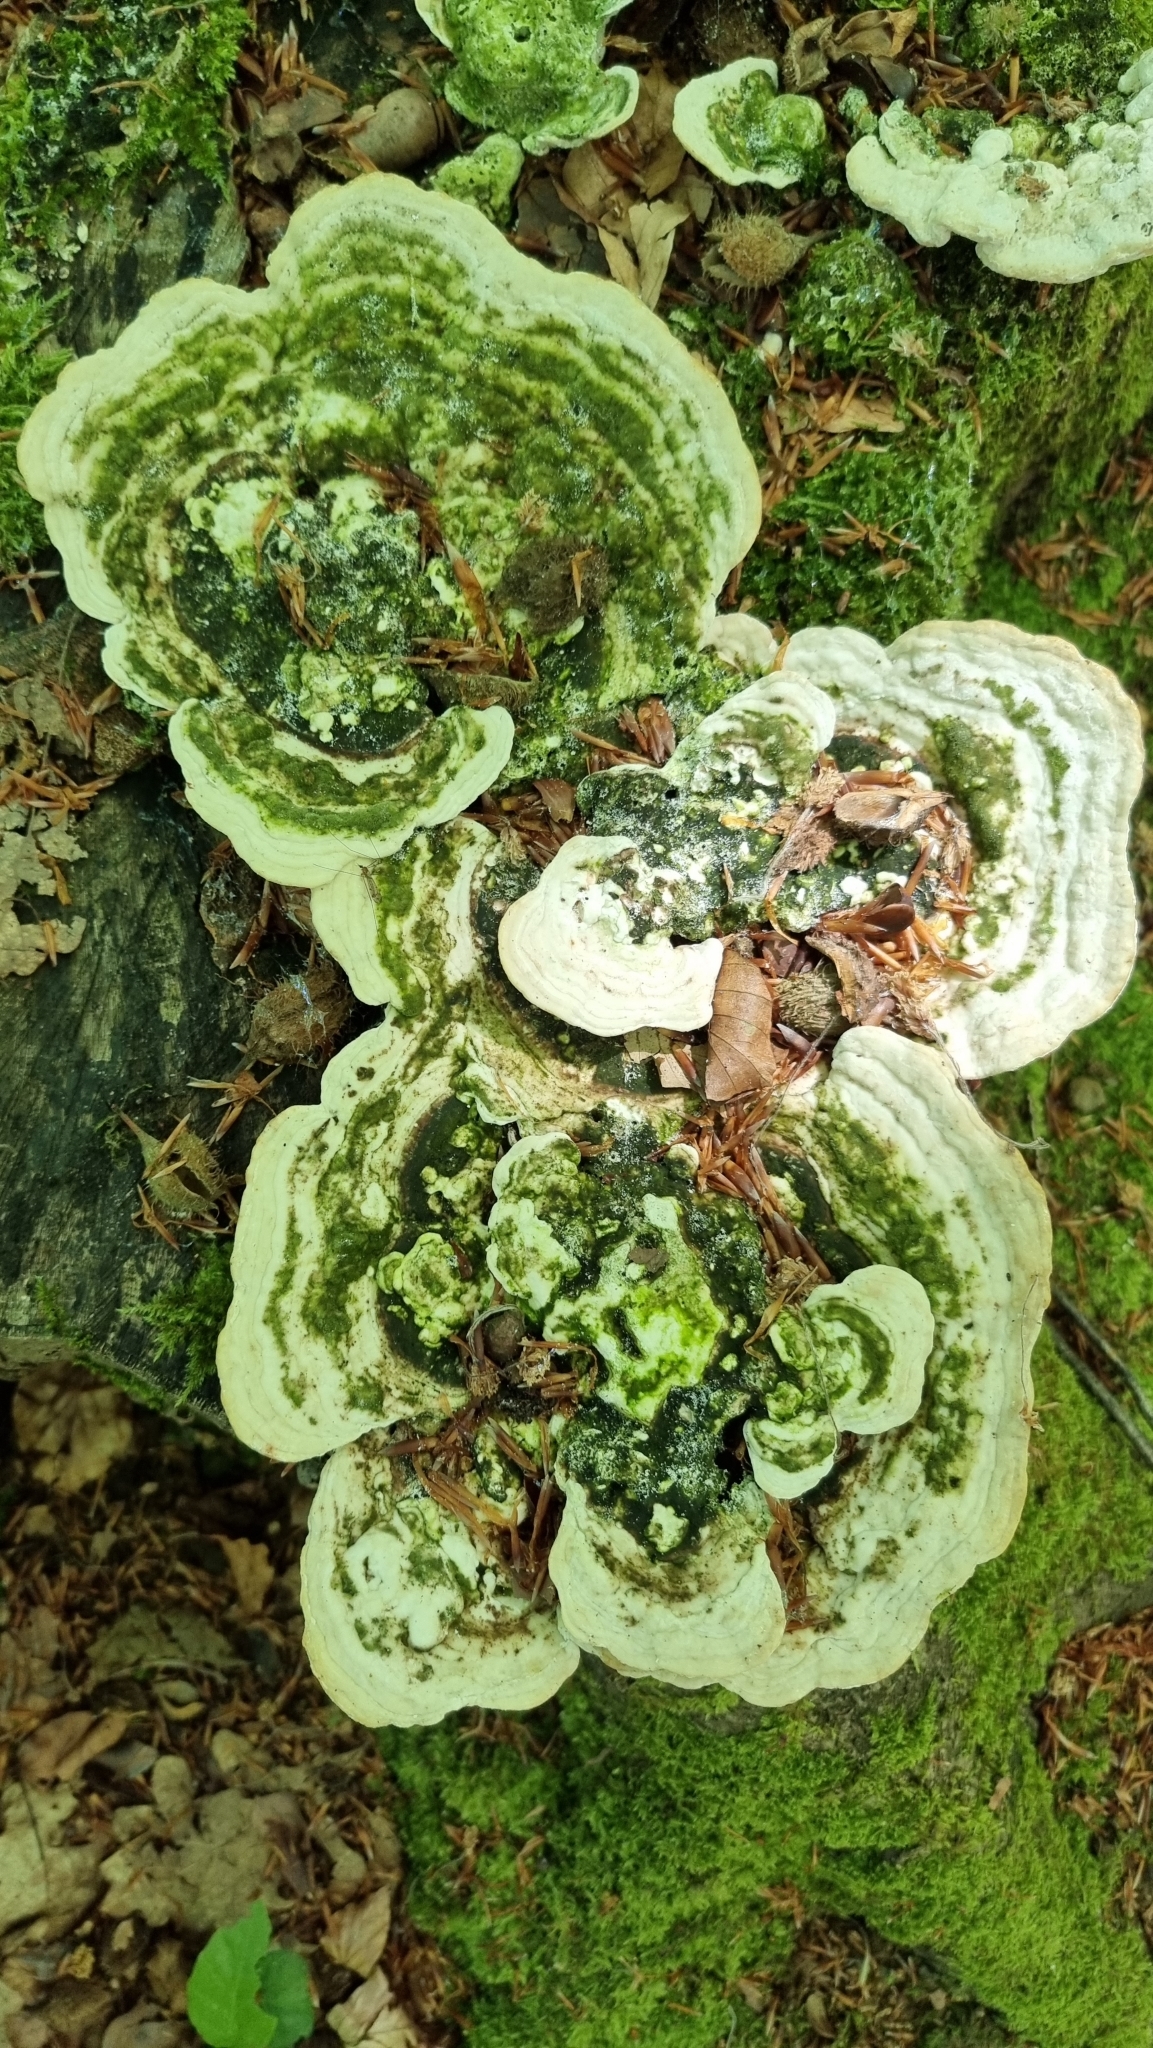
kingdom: Fungi
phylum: Basidiomycota
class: Agaricomycetes
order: Polyporales
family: Polyporaceae
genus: Trametes
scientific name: Trametes gibbosa
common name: Lumpy bracket
